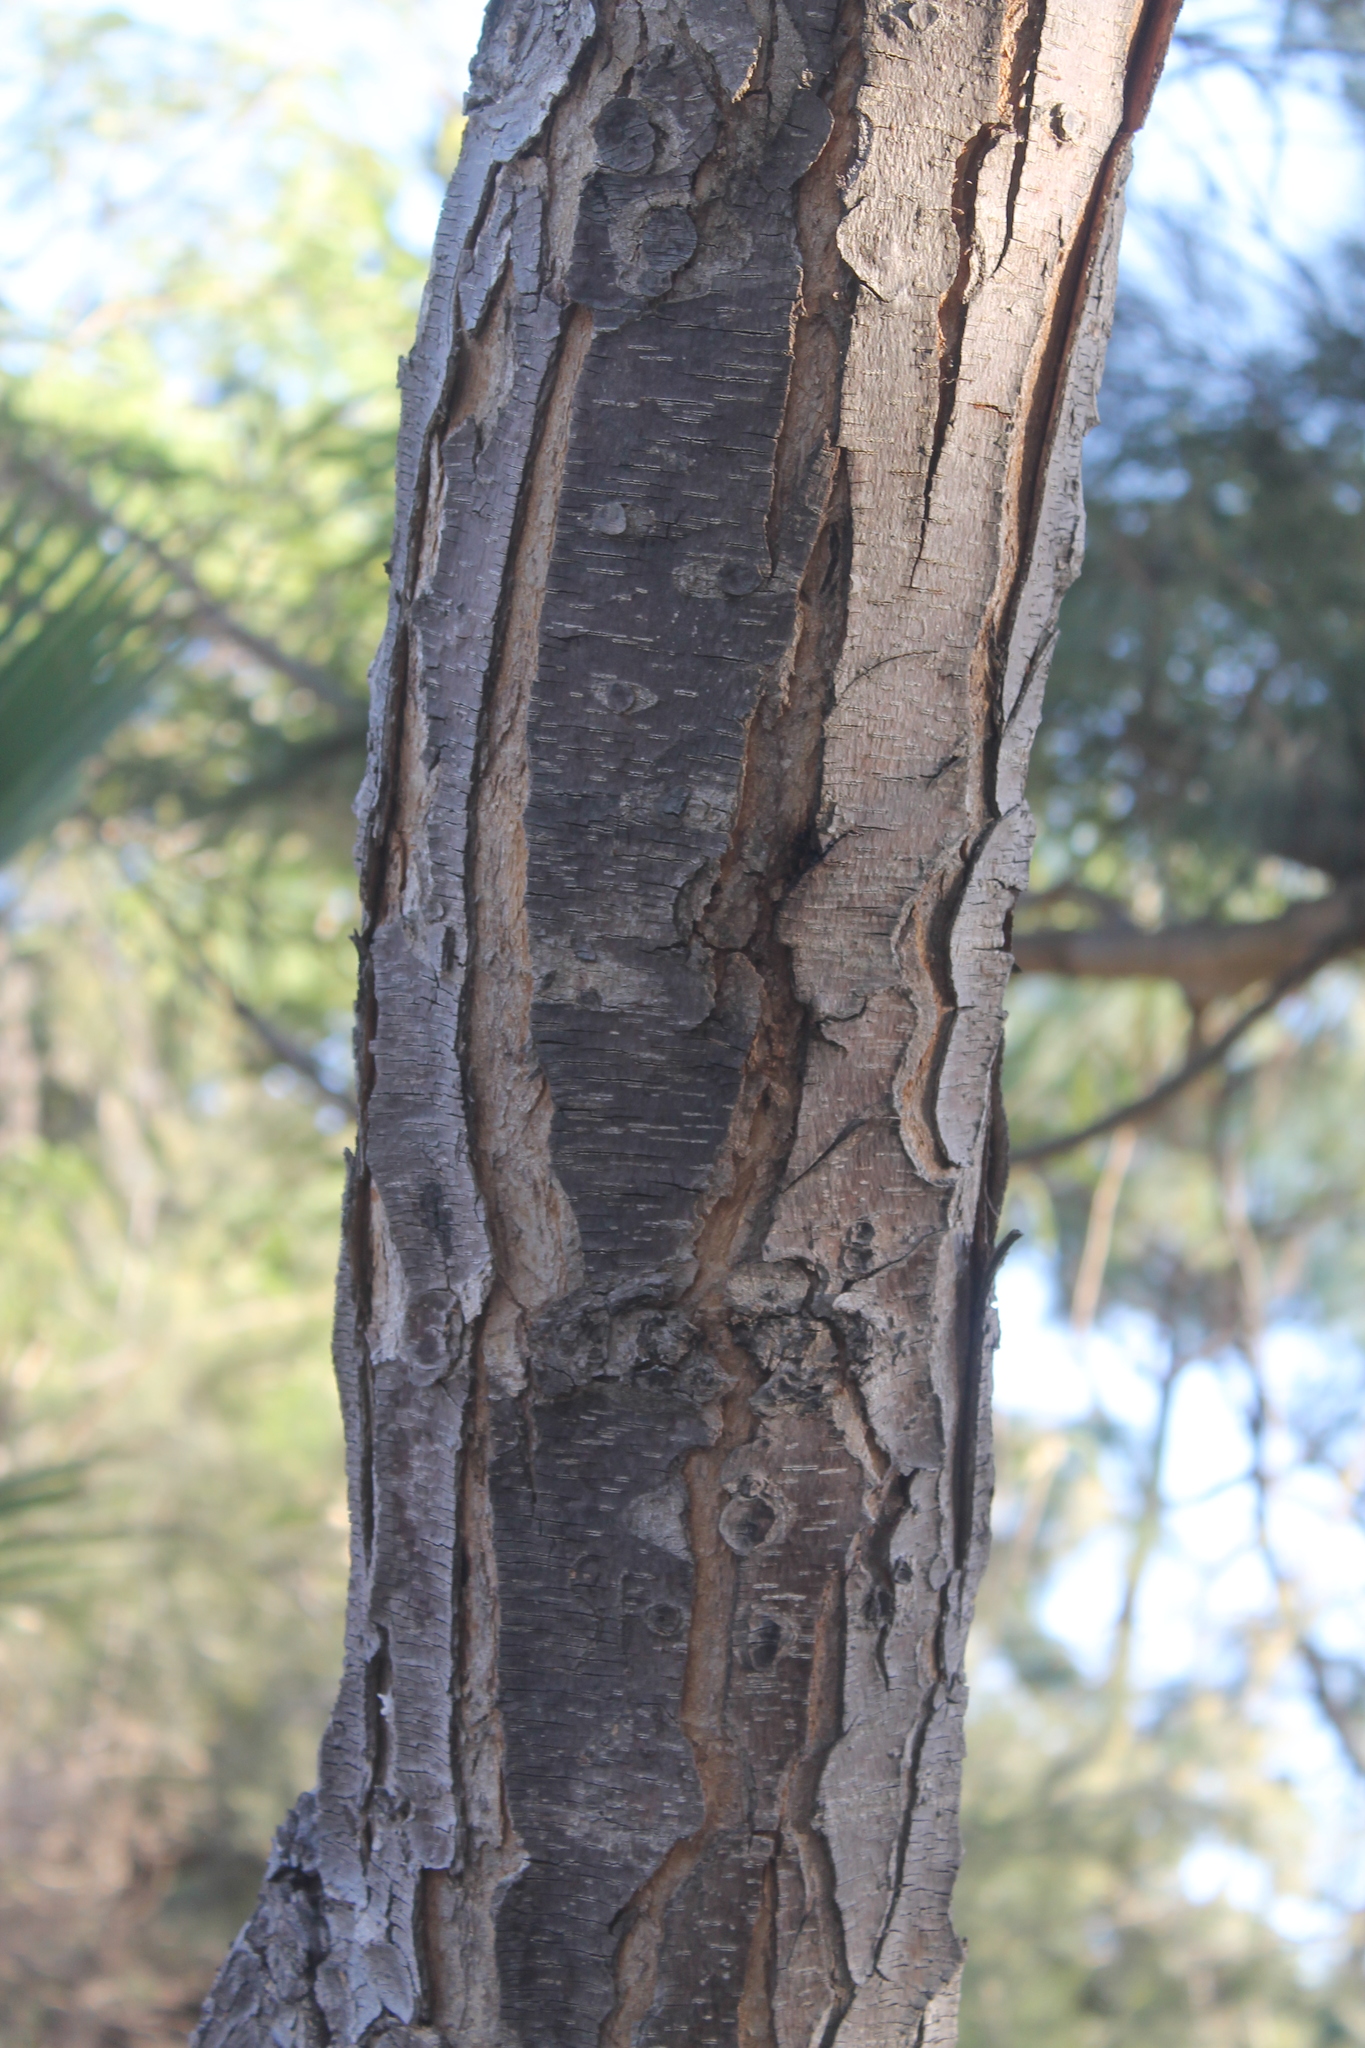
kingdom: Plantae
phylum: Tracheophyta
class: Magnoliopsida
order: Fabales
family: Fabaceae
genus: Lysiloma
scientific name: Lysiloma acapulcense
